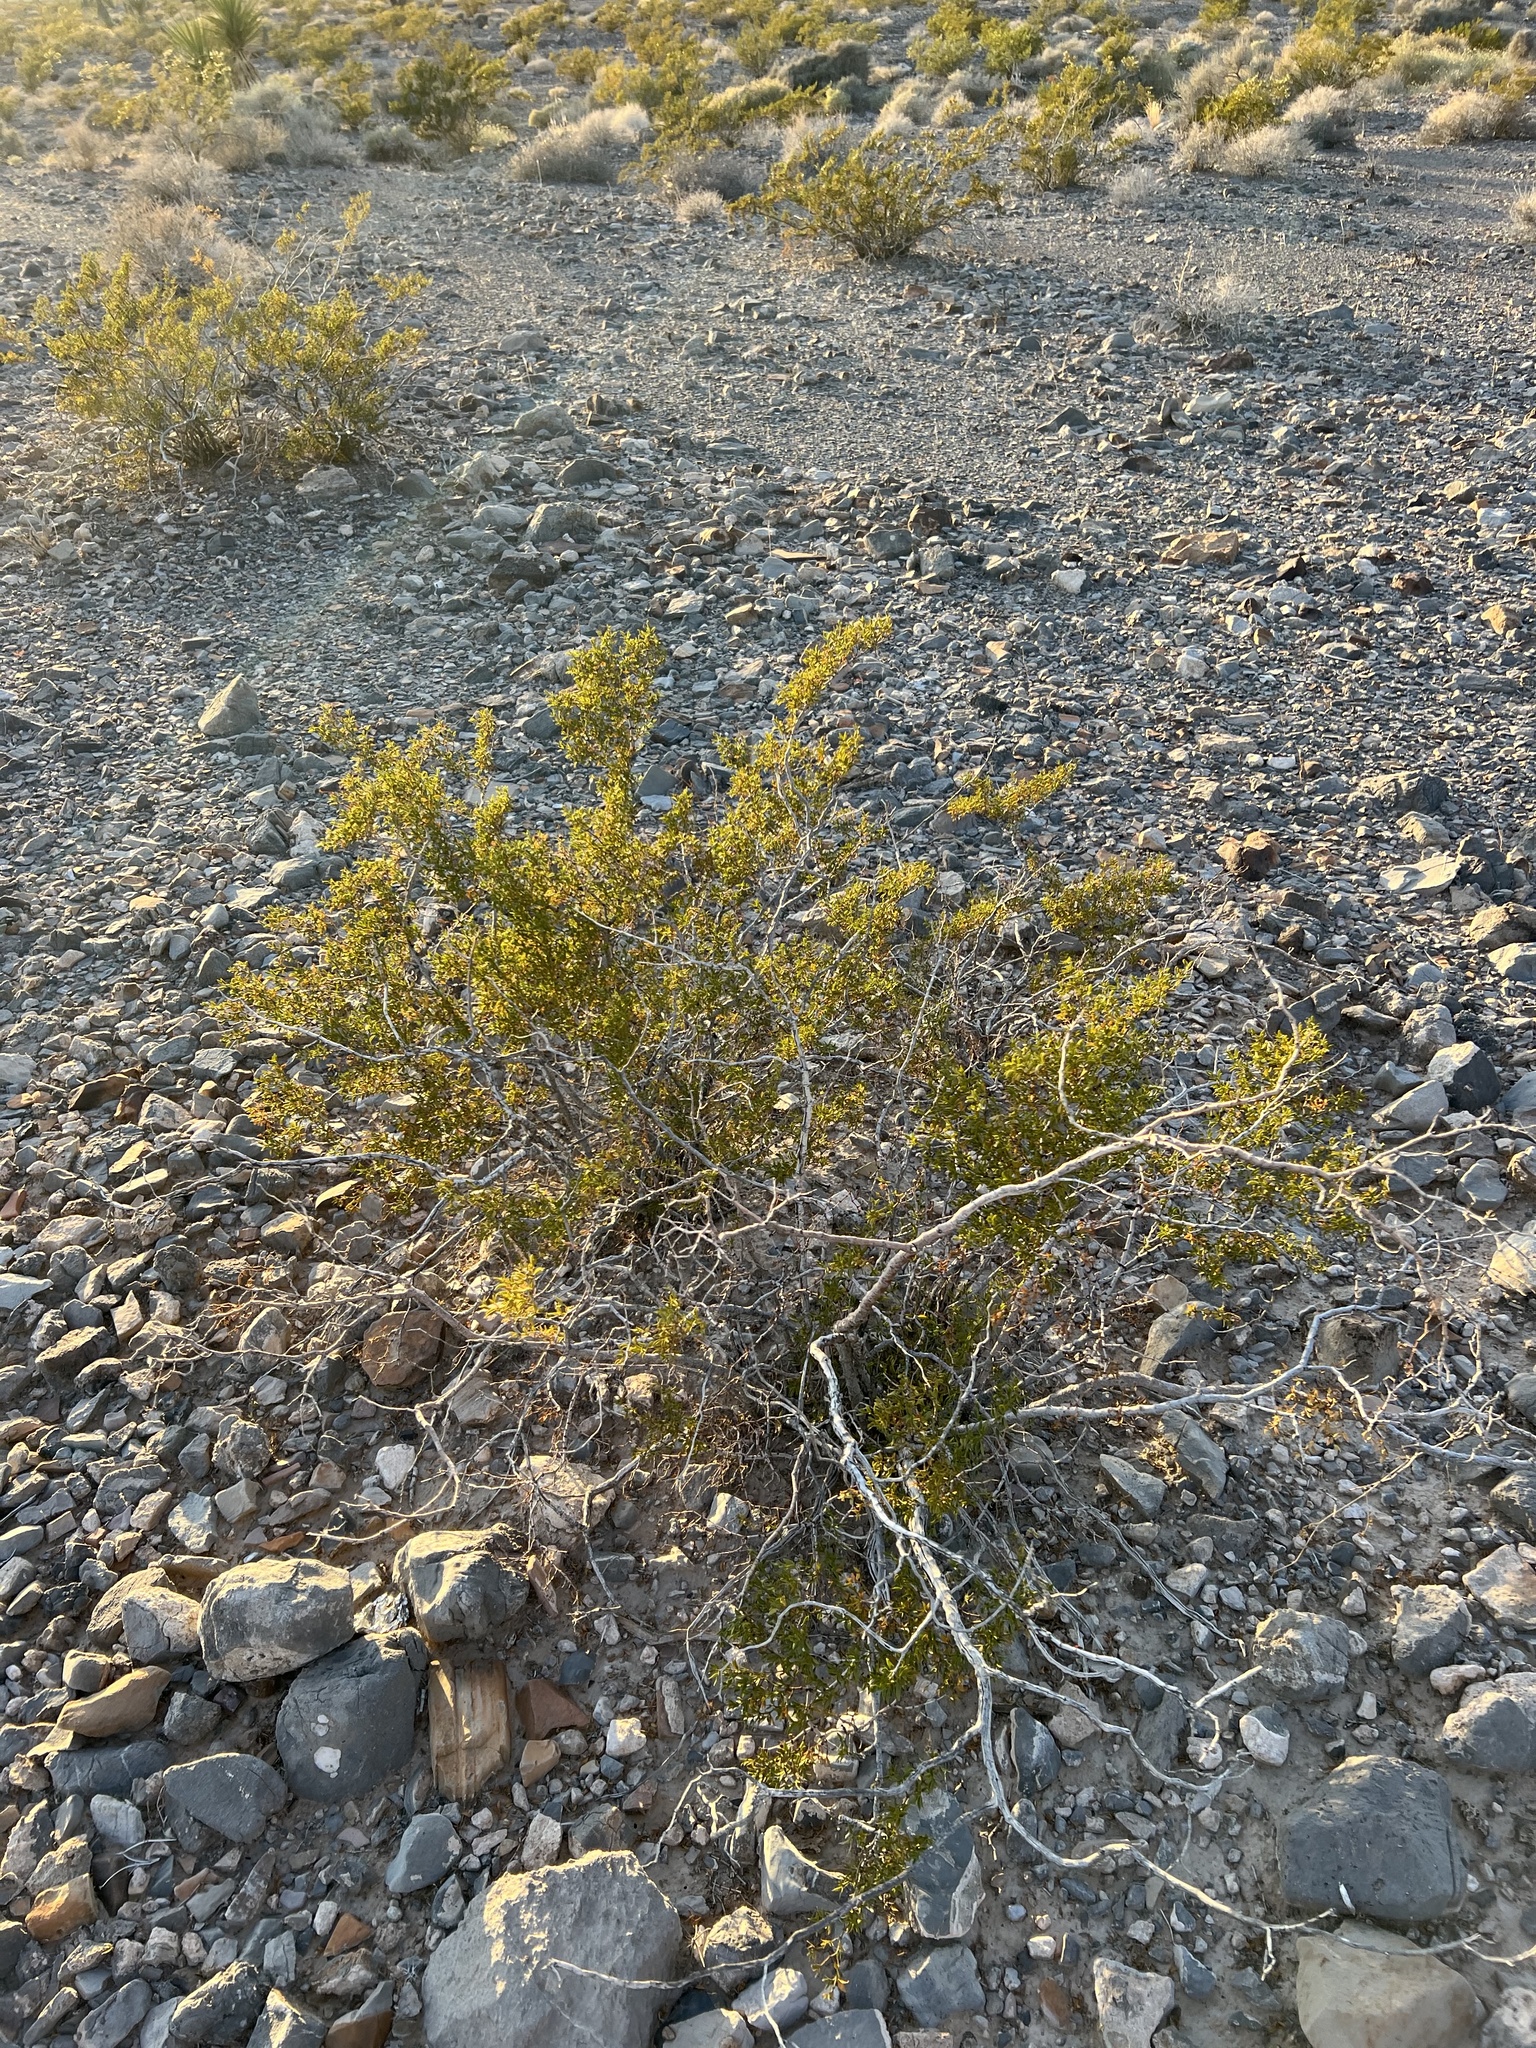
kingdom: Plantae
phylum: Tracheophyta
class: Magnoliopsida
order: Zygophyllales
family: Zygophyllaceae
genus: Larrea
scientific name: Larrea tridentata
